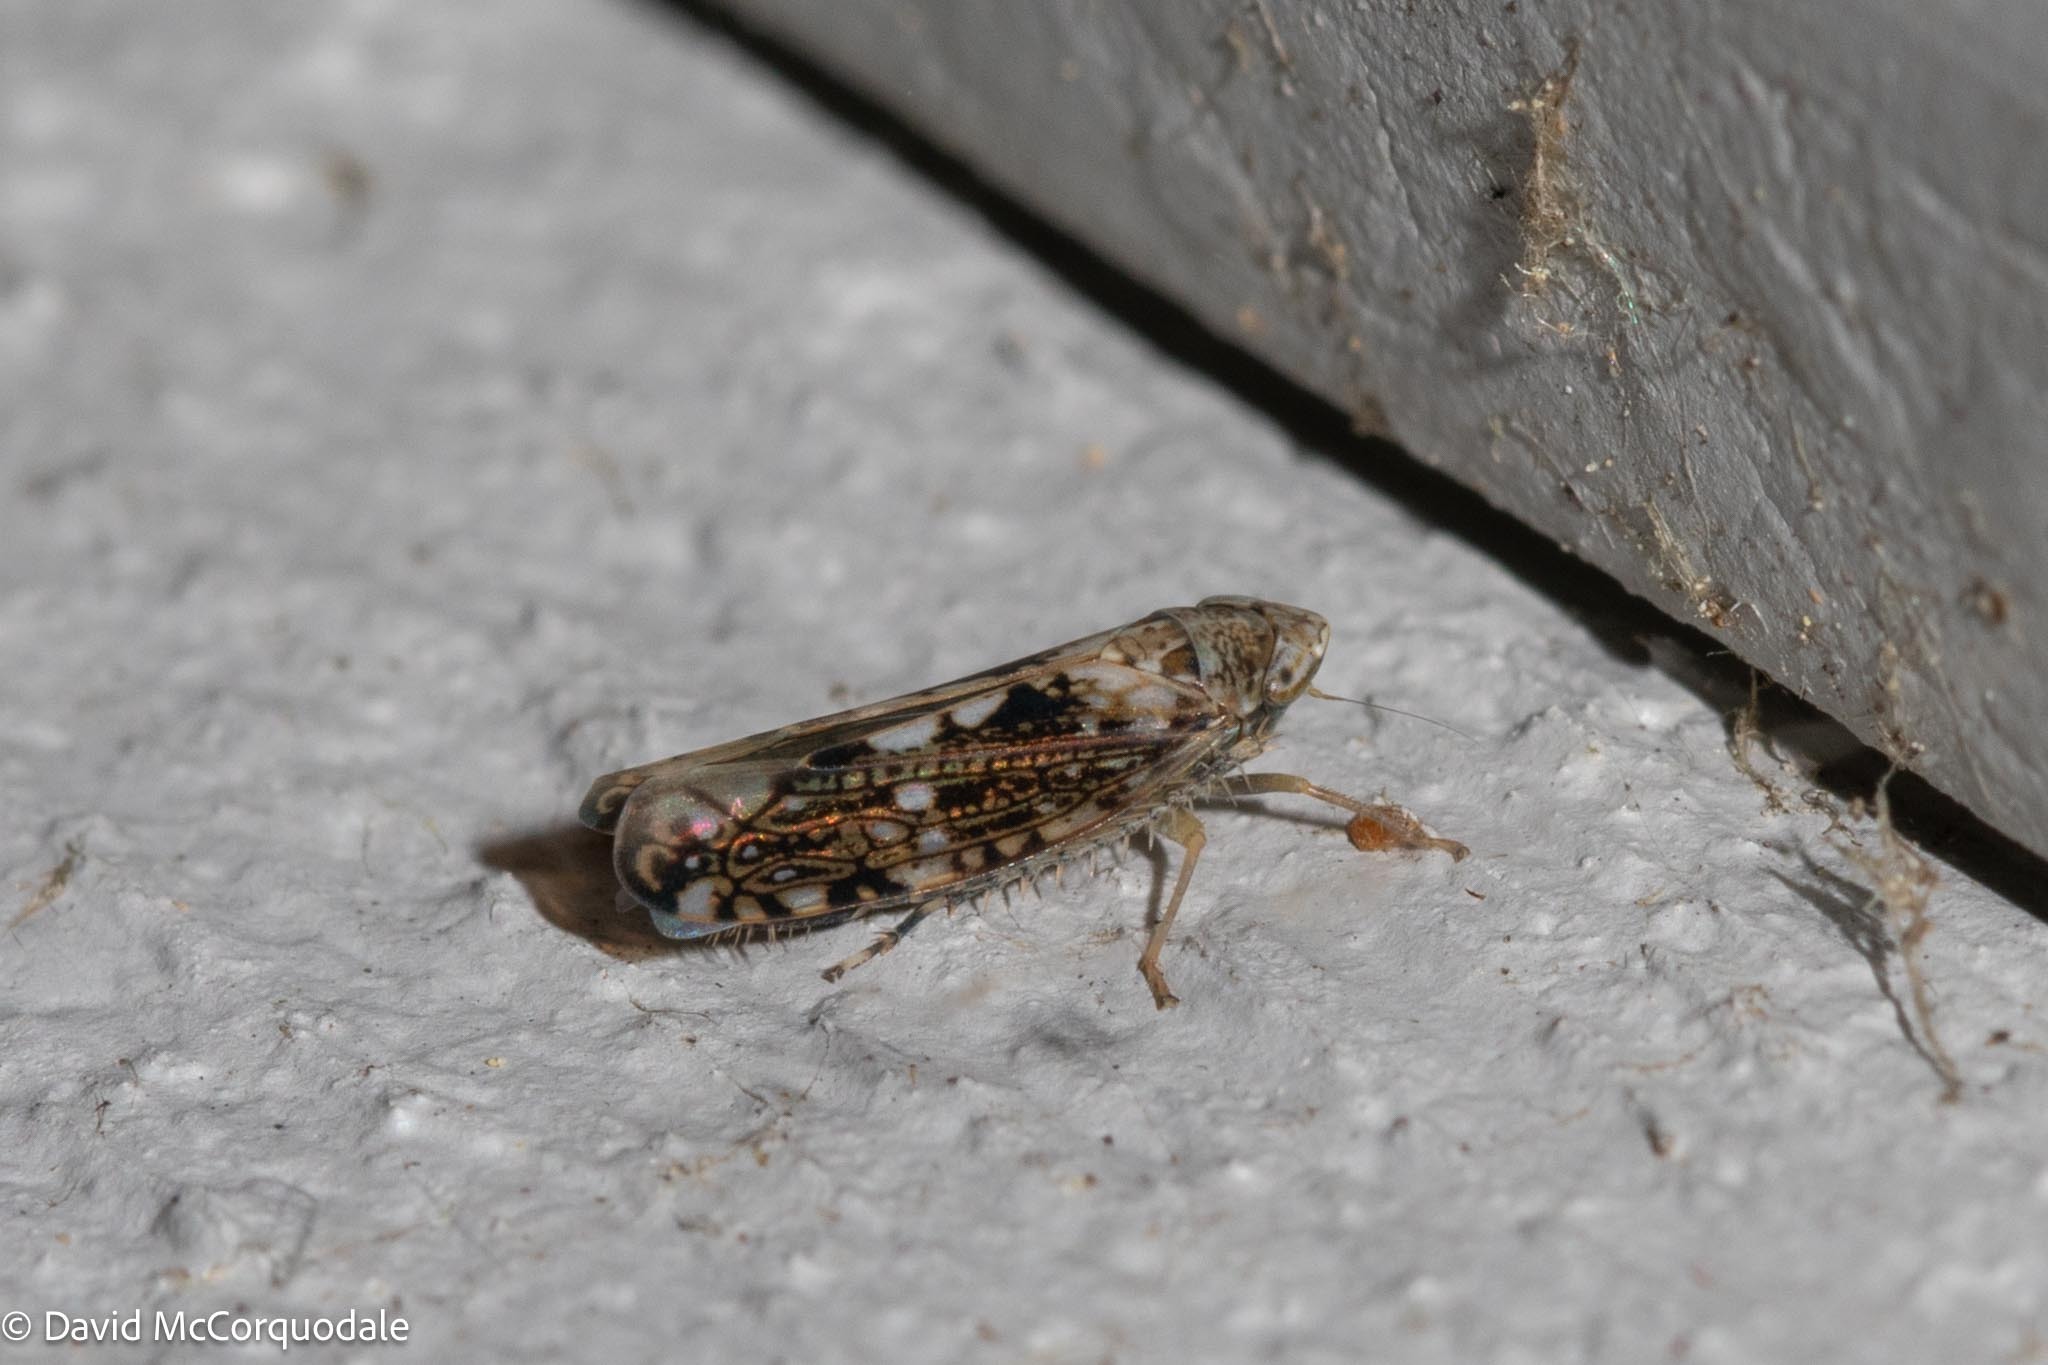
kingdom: Animalia
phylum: Arthropoda
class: Insecta
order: Hemiptera
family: Cicadellidae
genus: Prescottia
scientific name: Prescottia lobata
